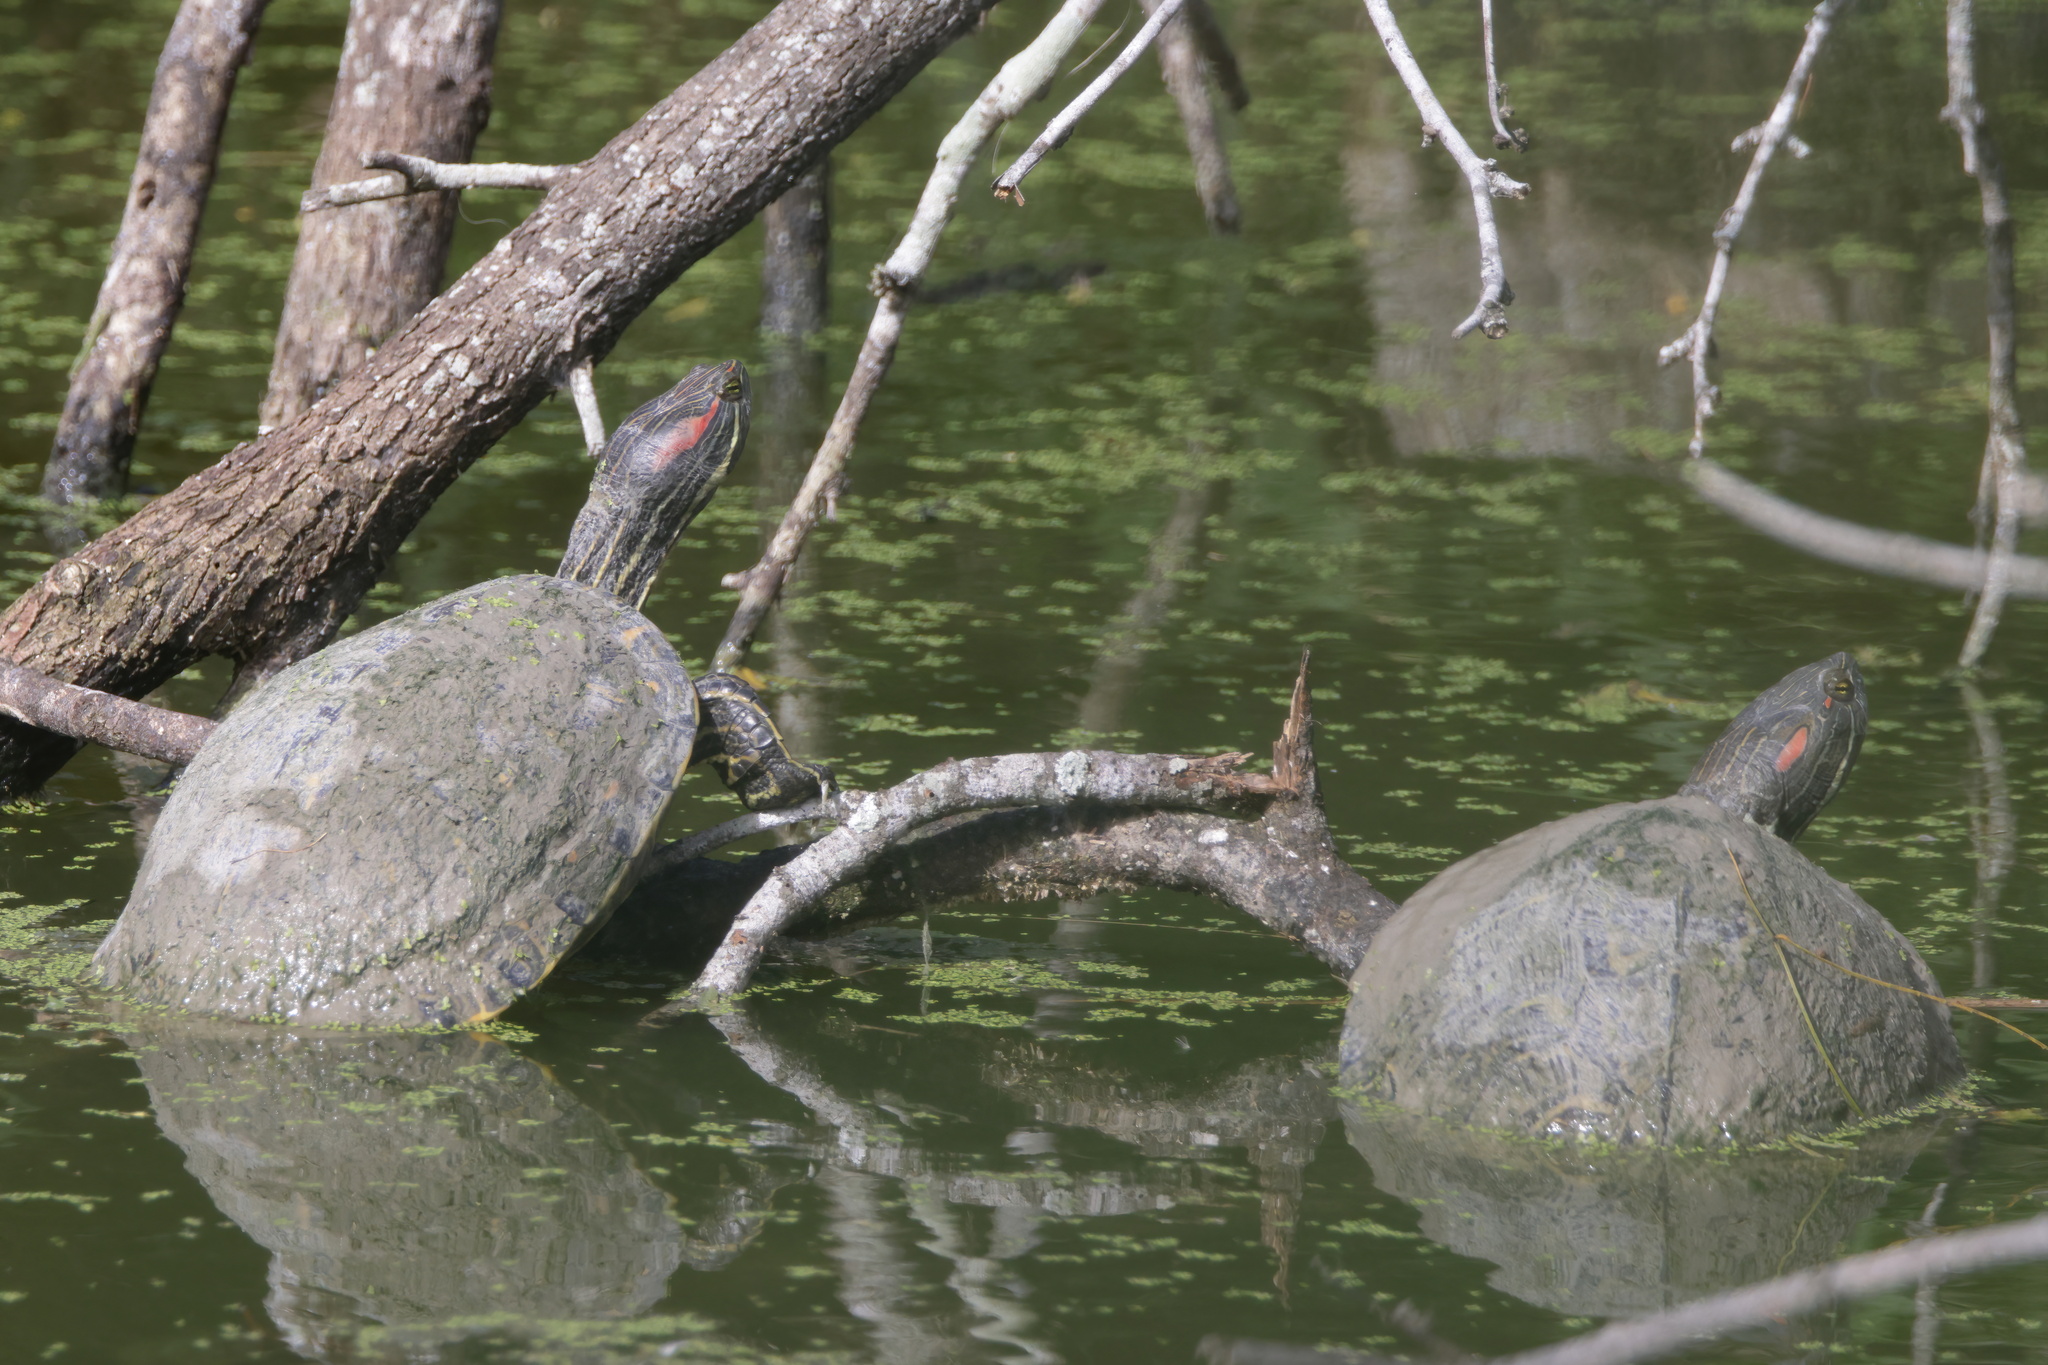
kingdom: Animalia
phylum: Chordata
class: Testudines
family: Emydidae
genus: Trachemys
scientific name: Trachemys scripta
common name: Slider
